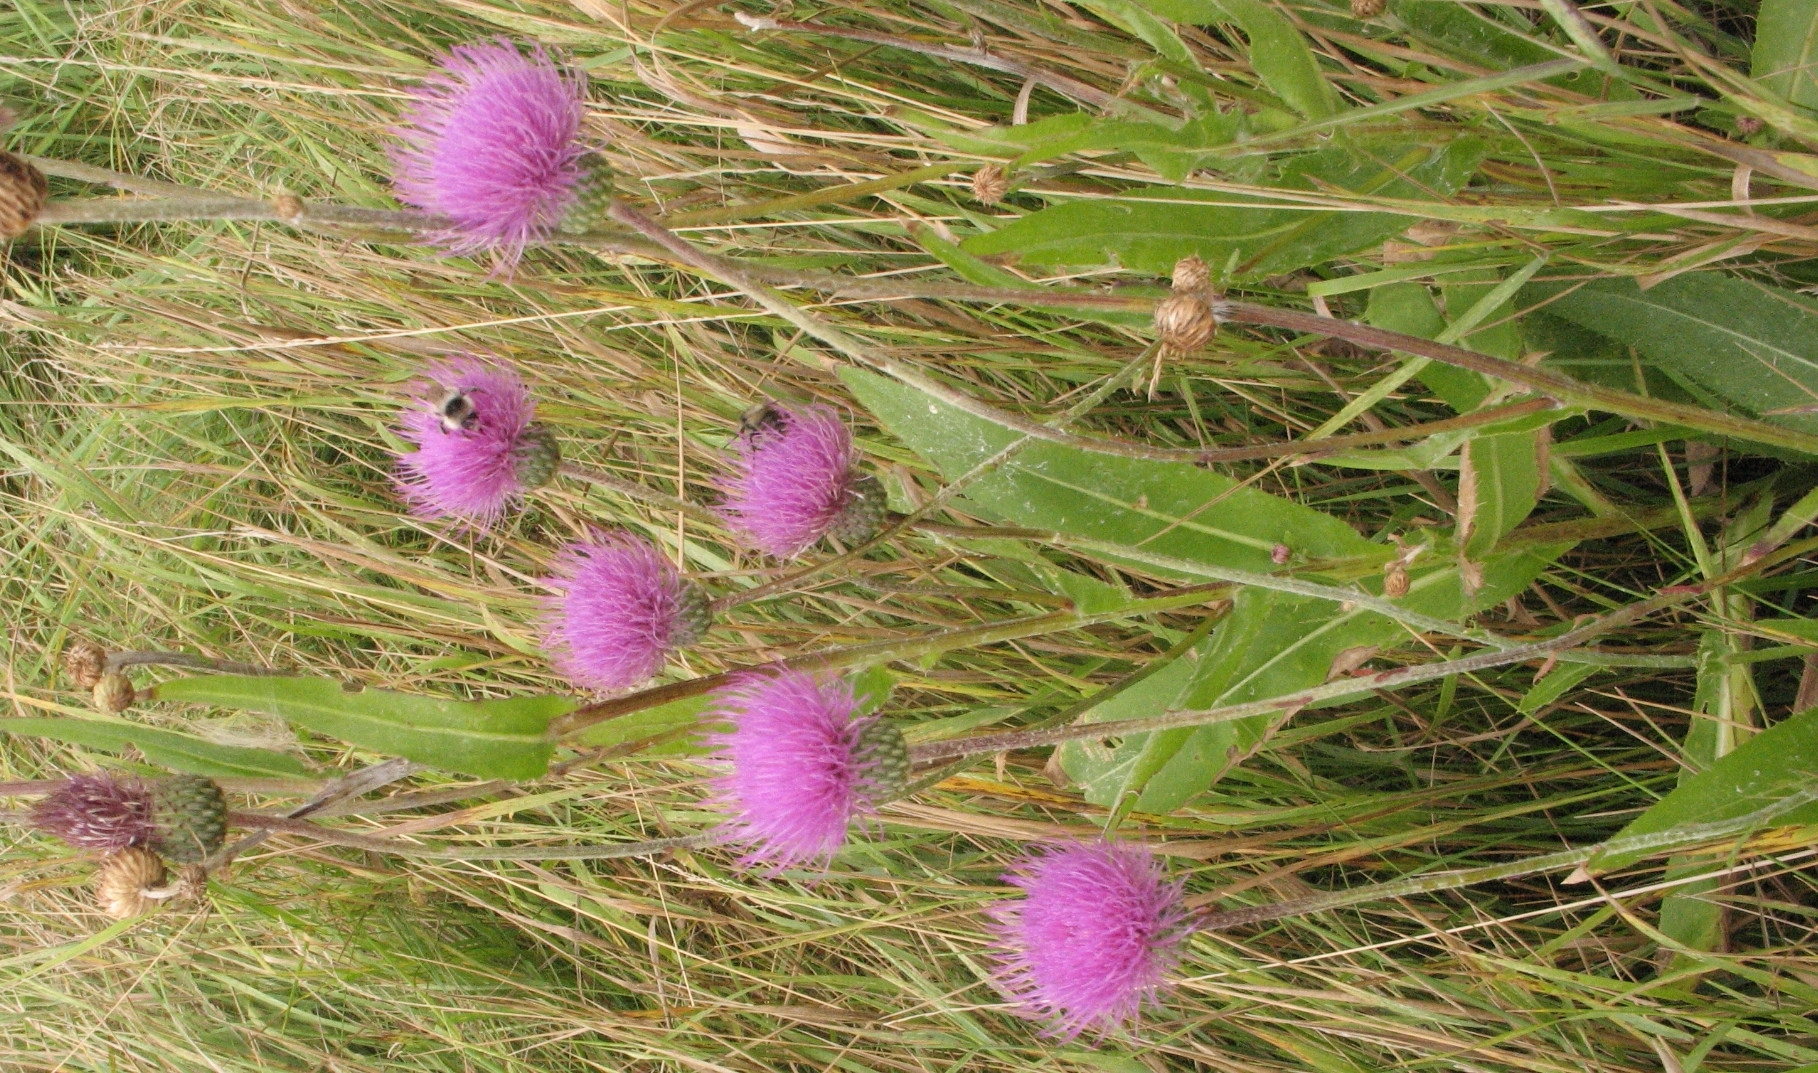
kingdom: Plantae
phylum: Tracheophyta
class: Magnoliopsida
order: Asterales
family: Asteraceae
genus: Cirsium
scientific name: Cirsium canum
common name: Queen anne's thistle
